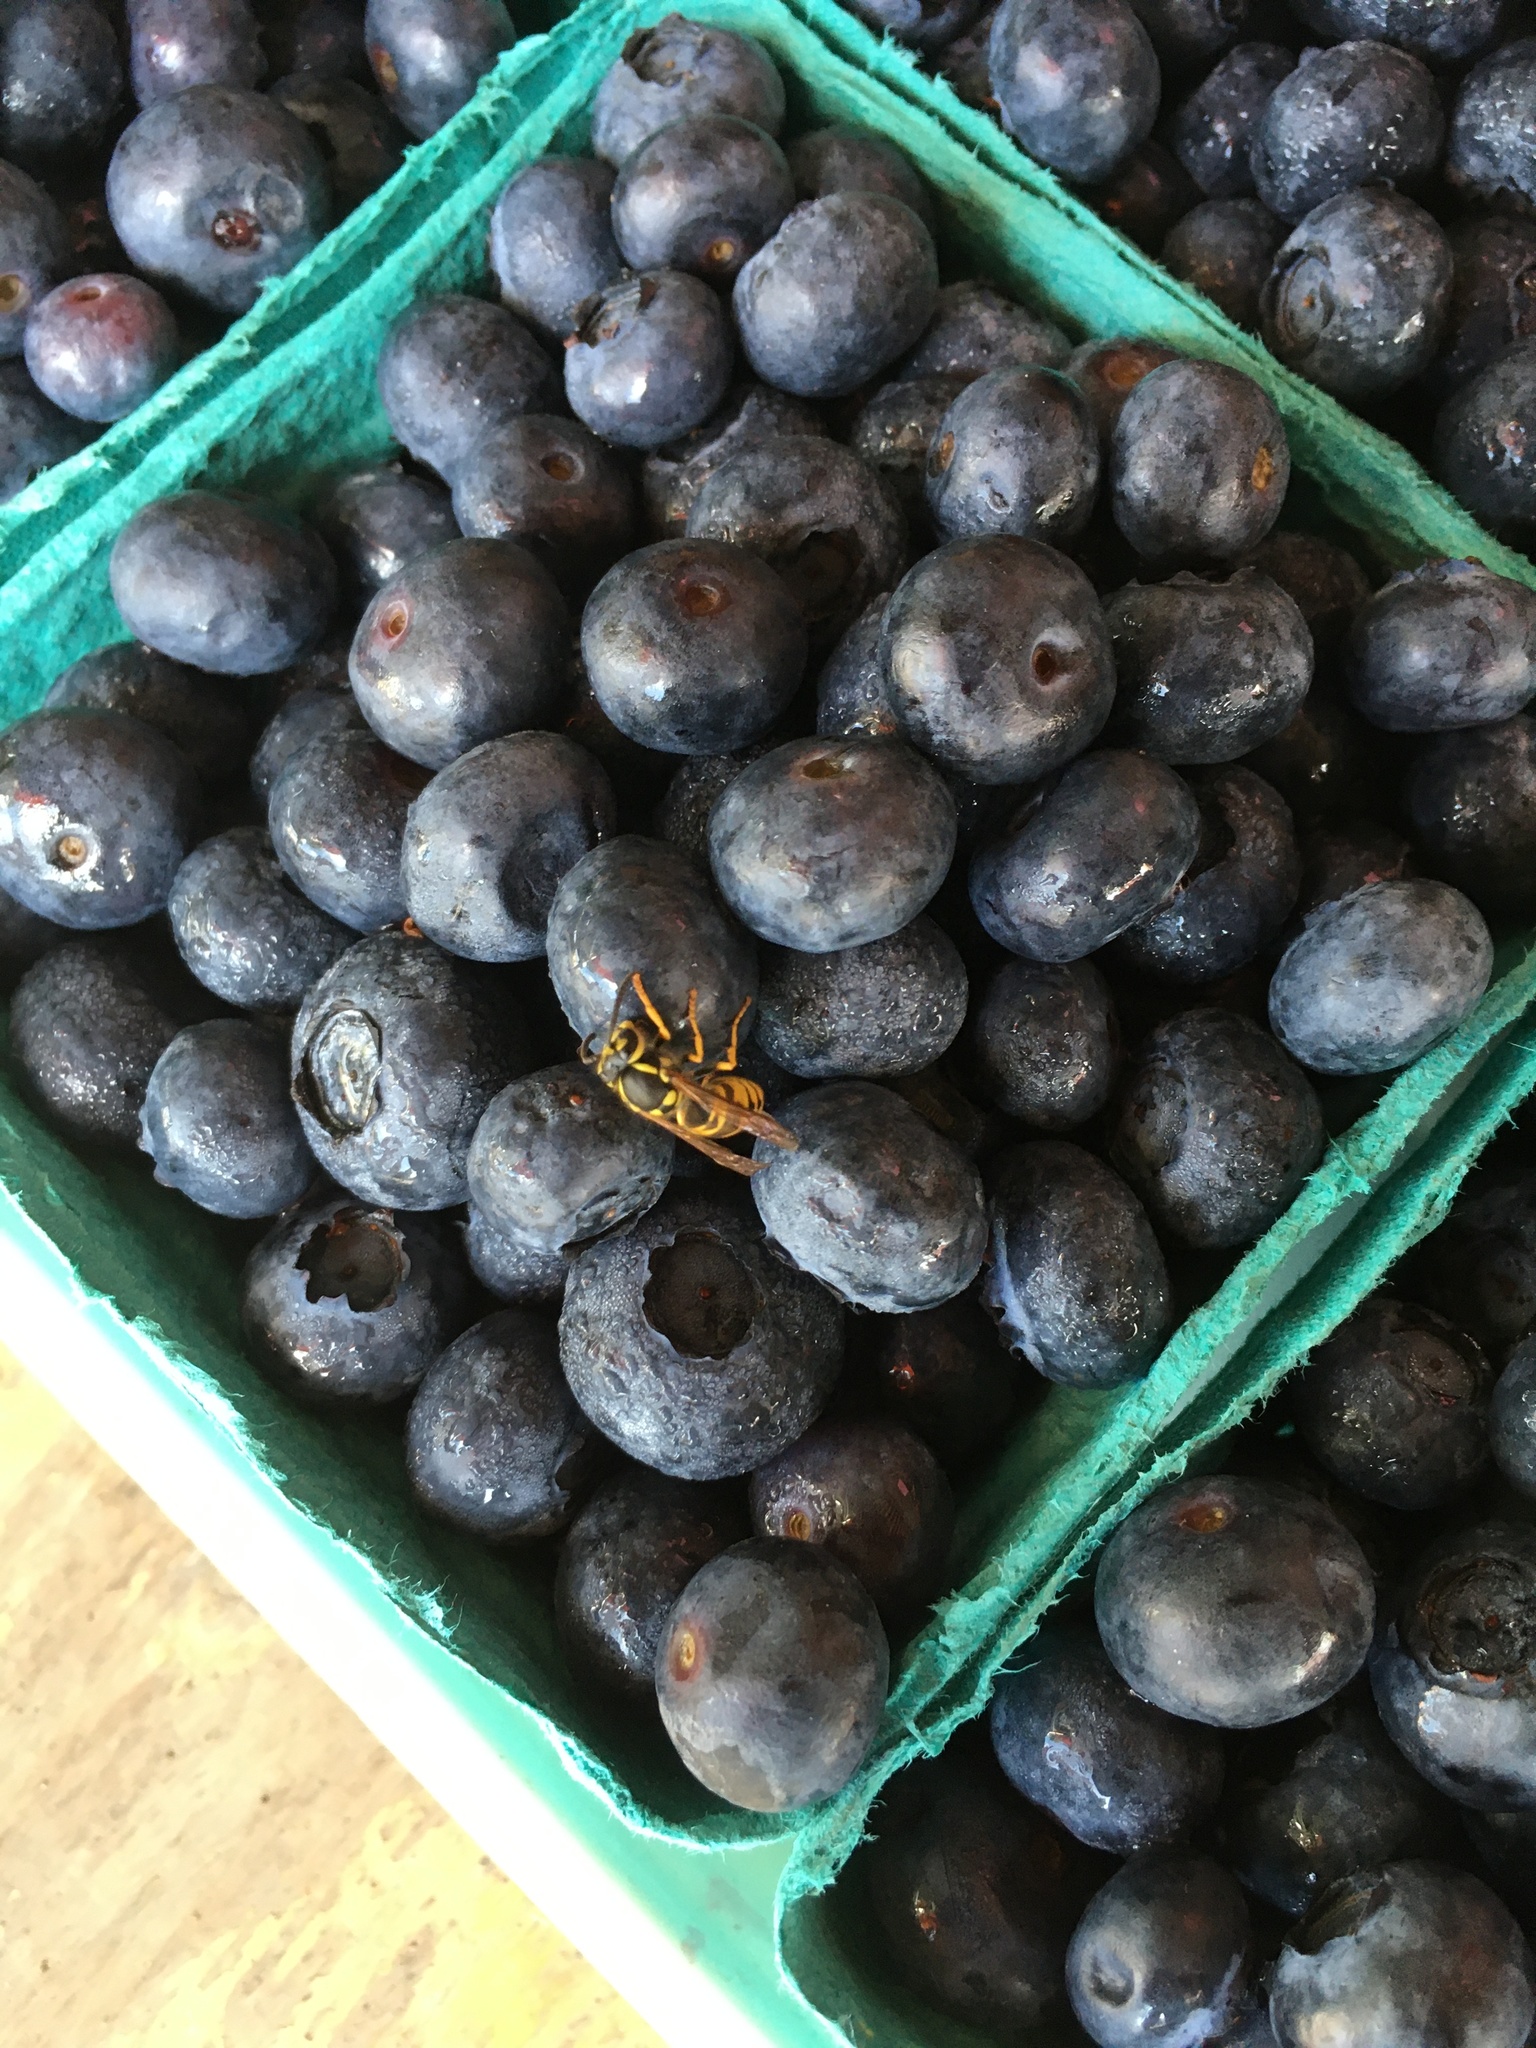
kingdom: Animalia
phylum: Arthropoda
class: Insecta
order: Hymenoptera
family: Vespidae
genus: Vespula
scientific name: Vespula germanica
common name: German wasp
